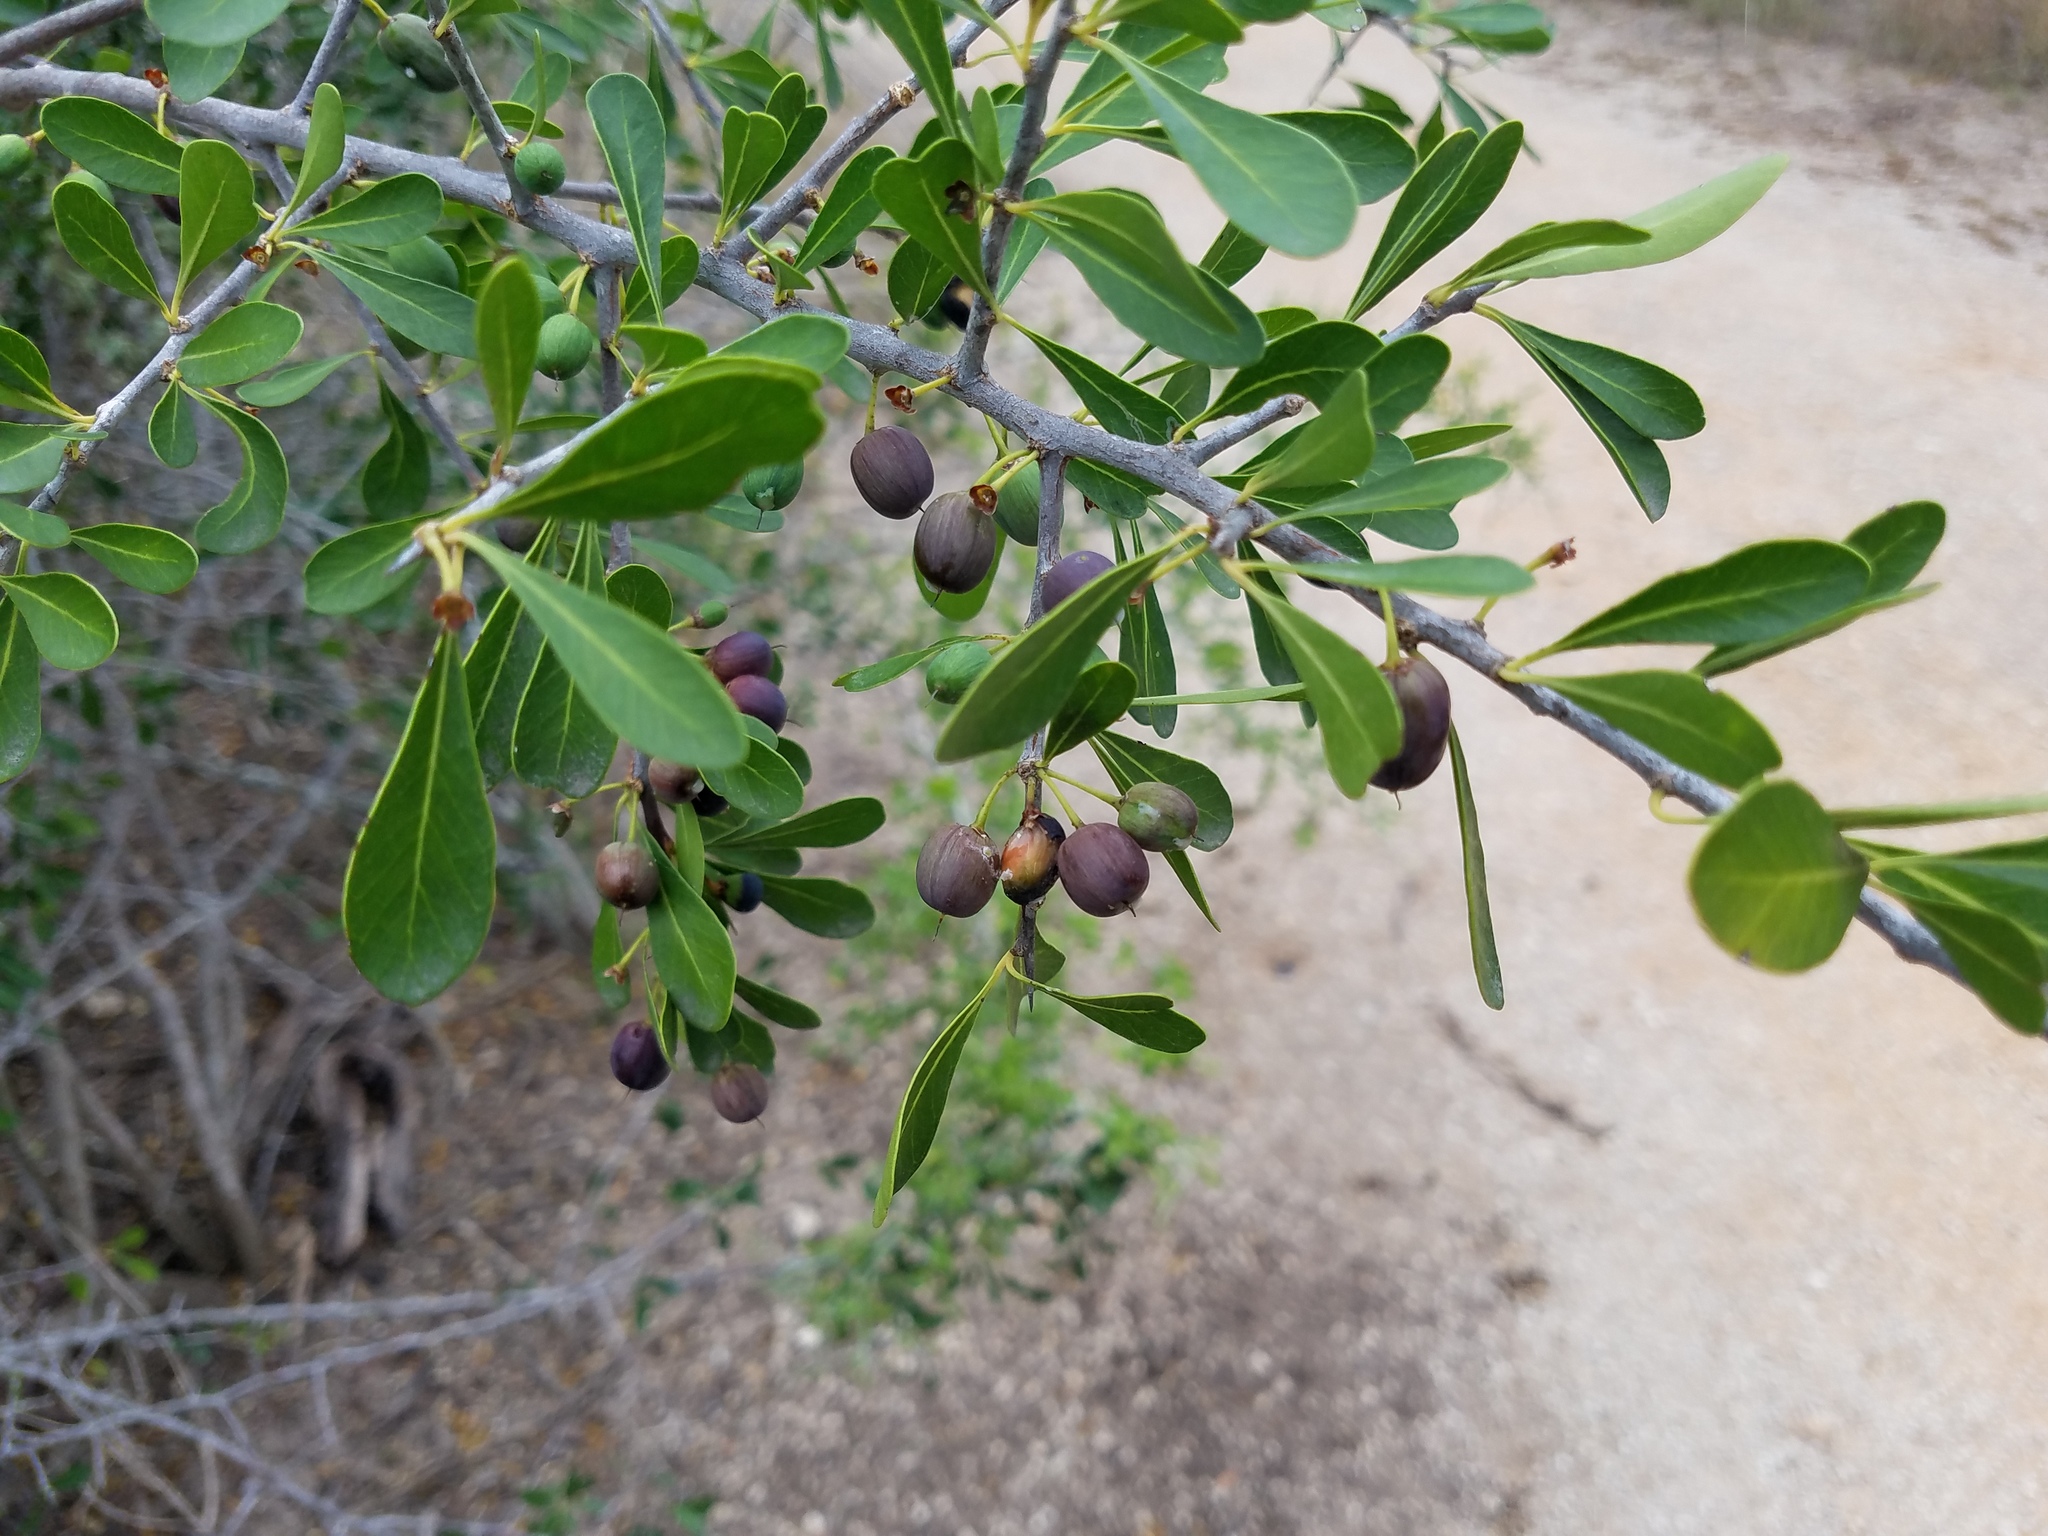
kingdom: Plantae
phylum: Tracheophyta
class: Magnoliopsida
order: Ericales
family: Sapotaceae
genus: Sideroxylon
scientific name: Sideroxylon celastrinum
